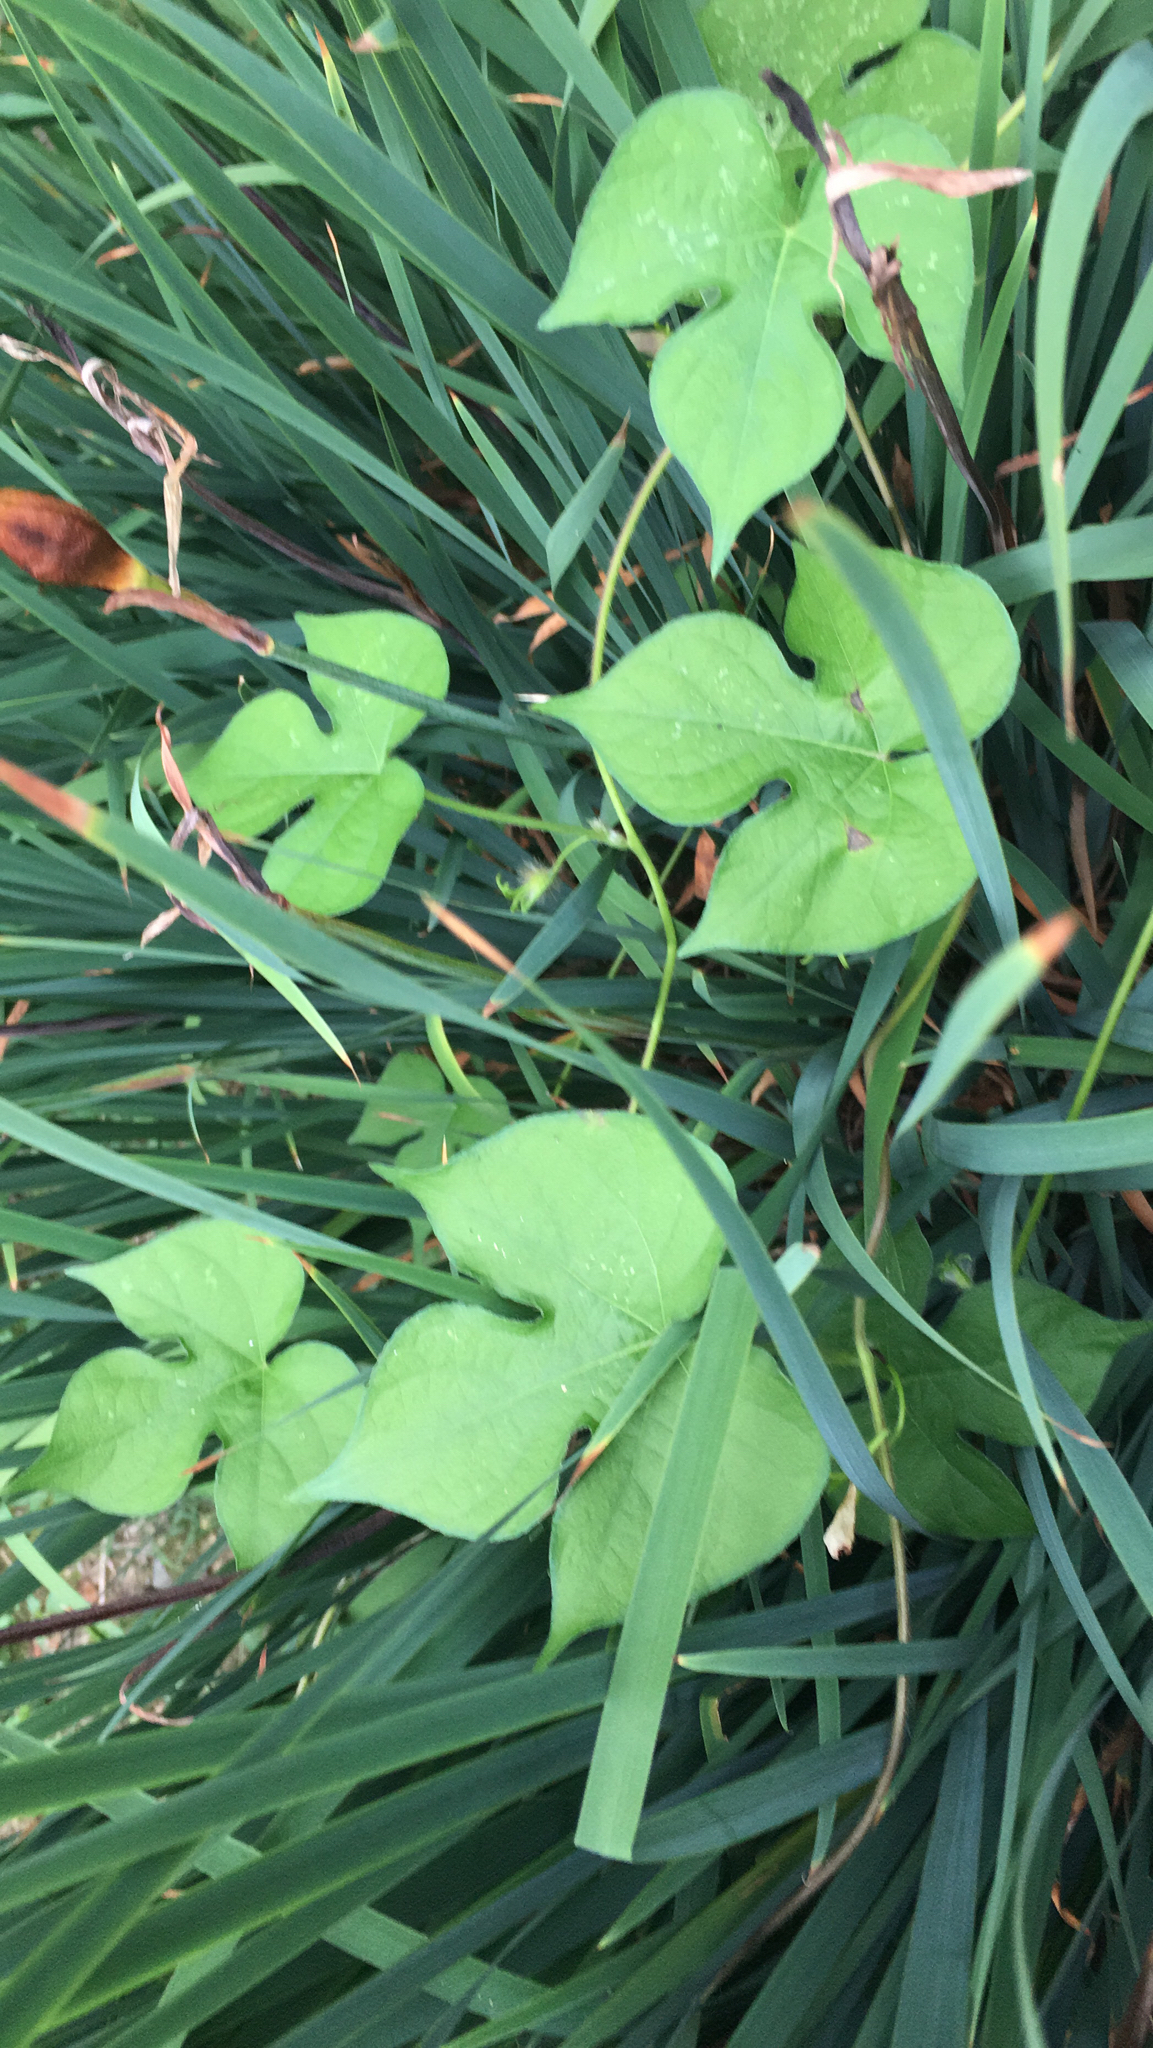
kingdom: Plantae
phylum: Tracheophyta
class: Magnoliopsida
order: Solanales
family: Convolvulaceae
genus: Ipomoea
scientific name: Ipomoea hederacea
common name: Ivy-leaved morning-glory
